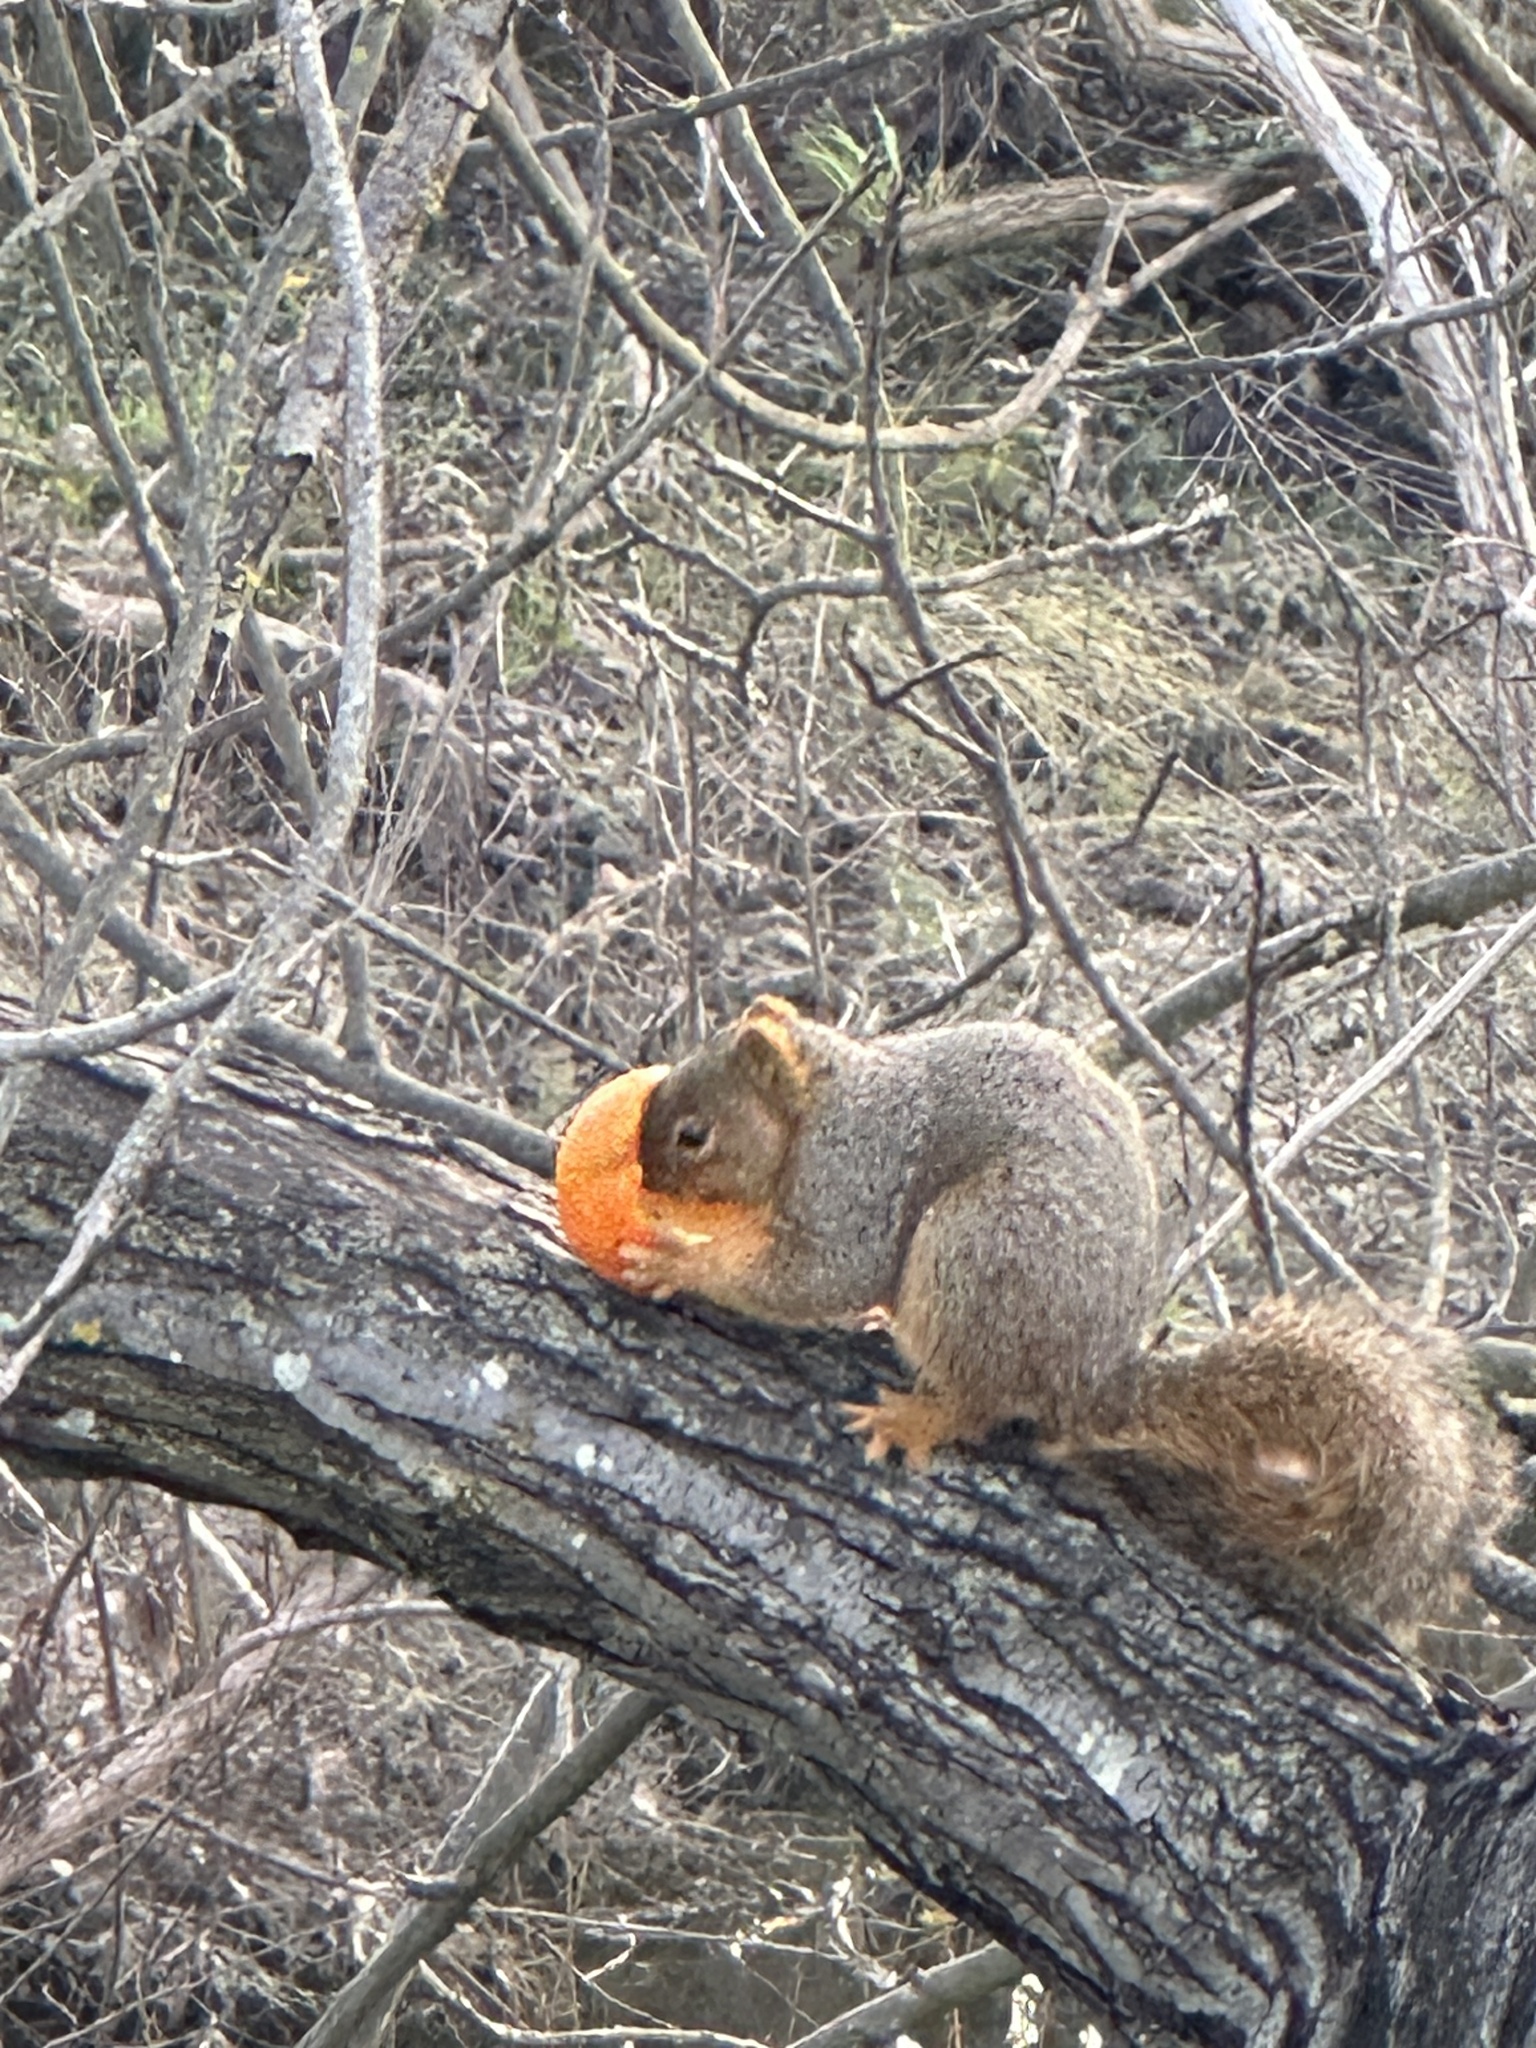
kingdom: Animalia
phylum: Chordata
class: Mammalia
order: Rodentia
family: Sciuridae
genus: Sciurus
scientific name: Sciurus niger
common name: Fox squirrel
